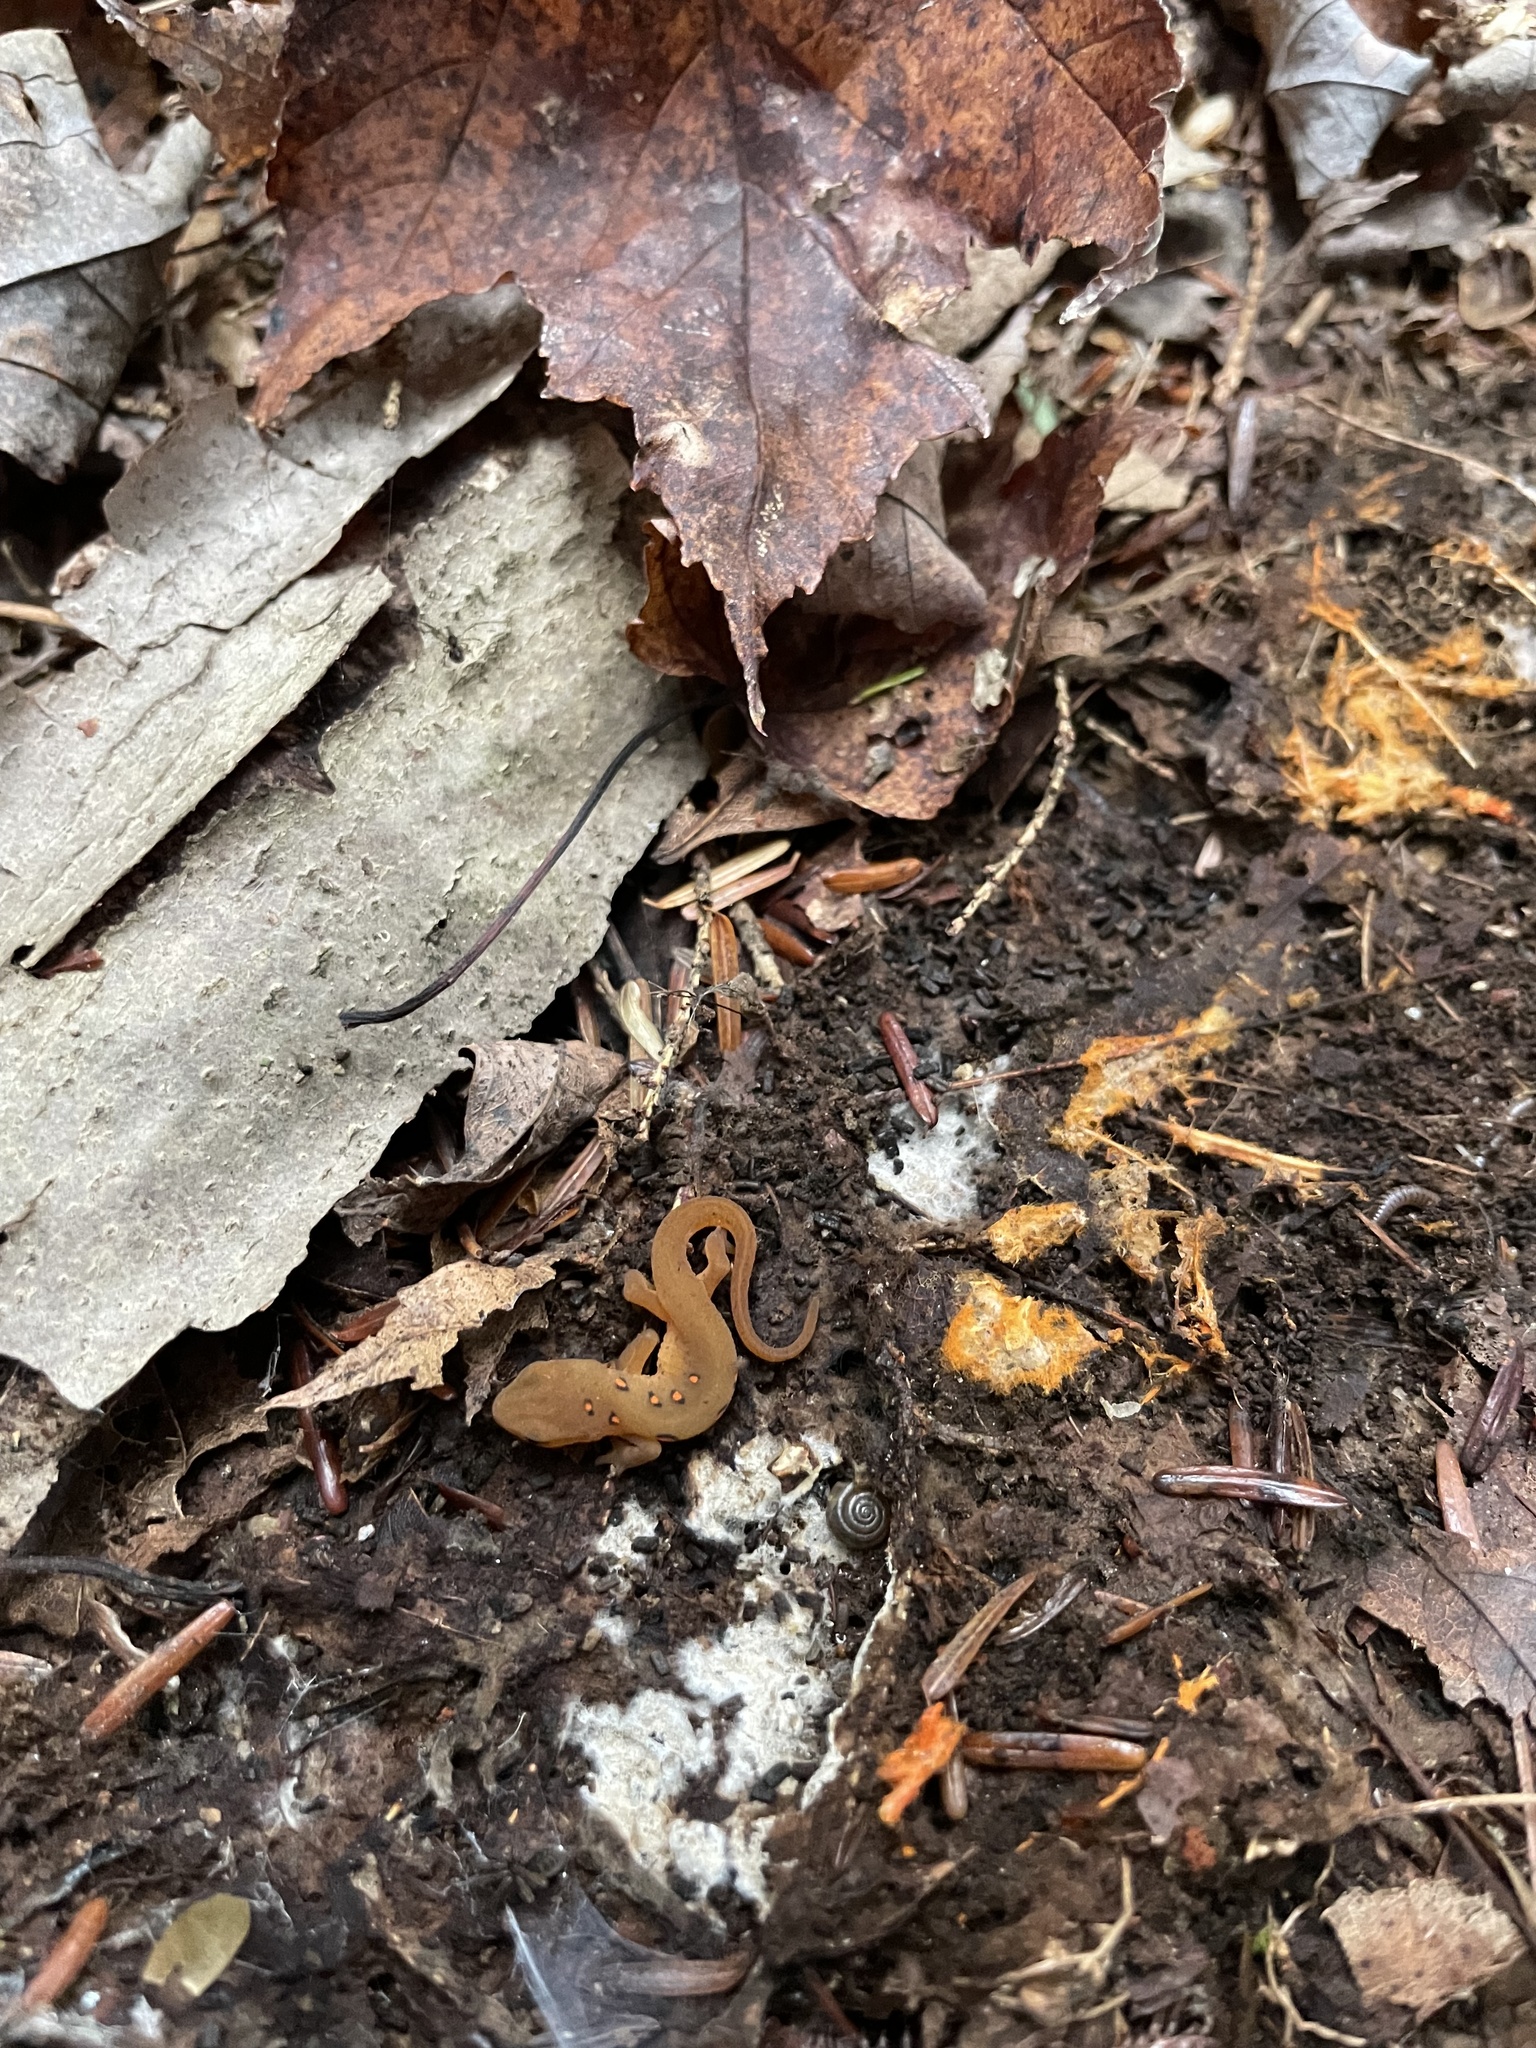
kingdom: Animalia
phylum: Chordata
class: Amphibia
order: Caudata
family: Salamandridae
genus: Notophthalmus
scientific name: Notophthalmus viridescens
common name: Eastern newt
